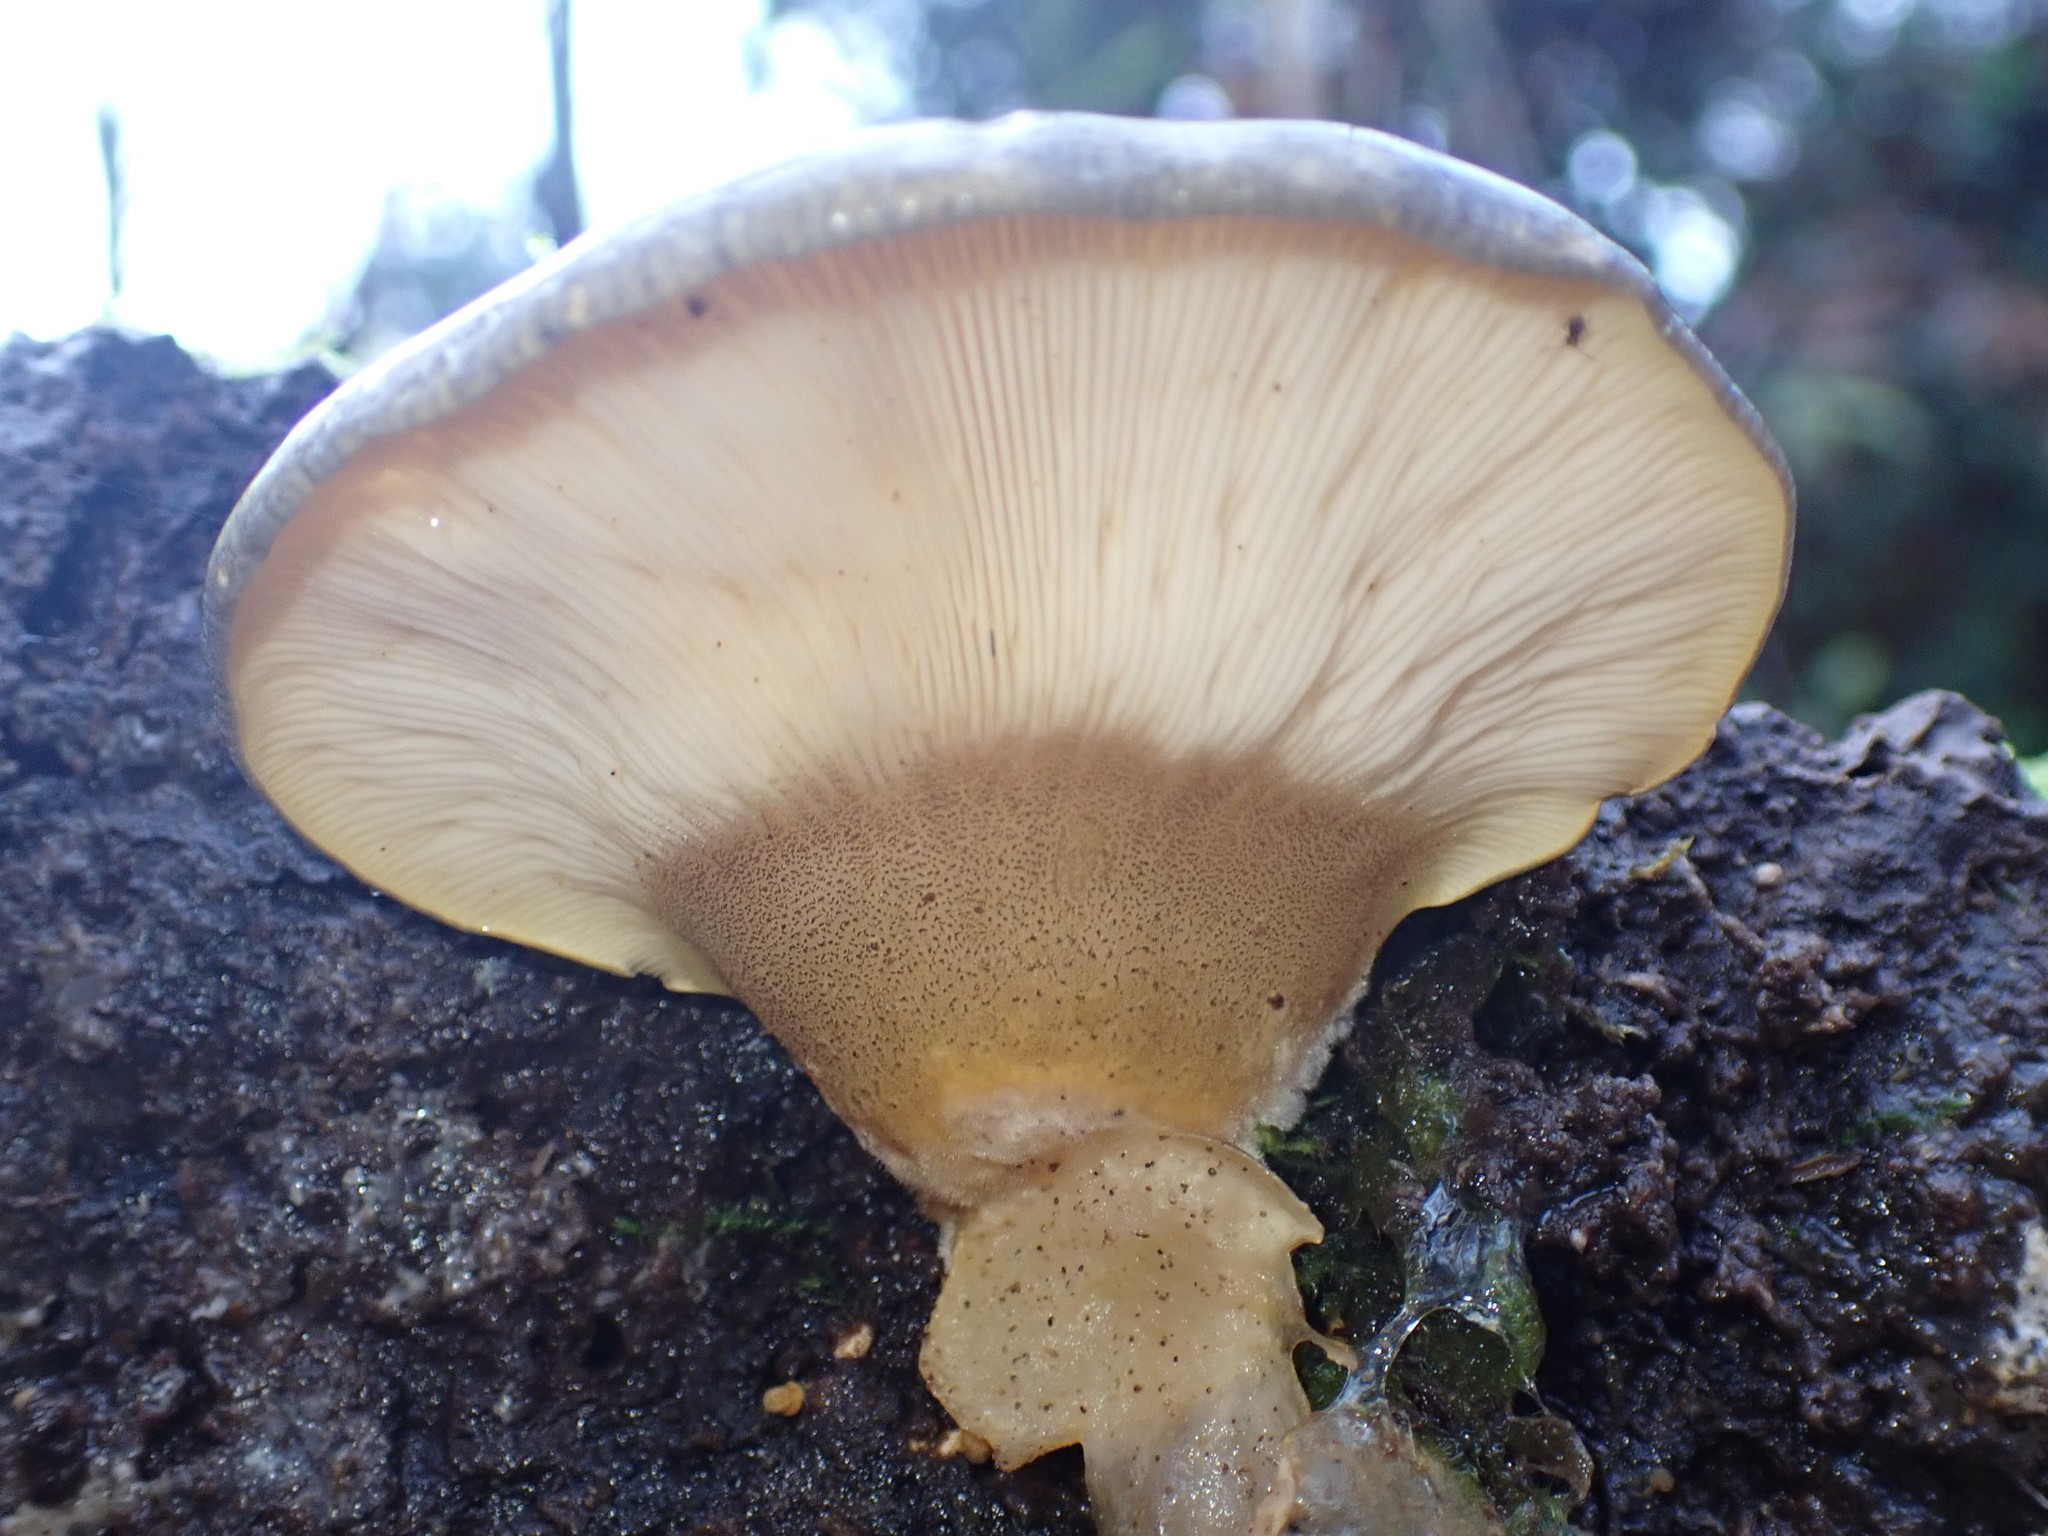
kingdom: Fungi
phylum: Basidiomycota
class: Agaricomycetes
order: Agaricales
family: Sarcomyxaceae
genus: Sarcomyxa
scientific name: Sarcomyxa serotina
